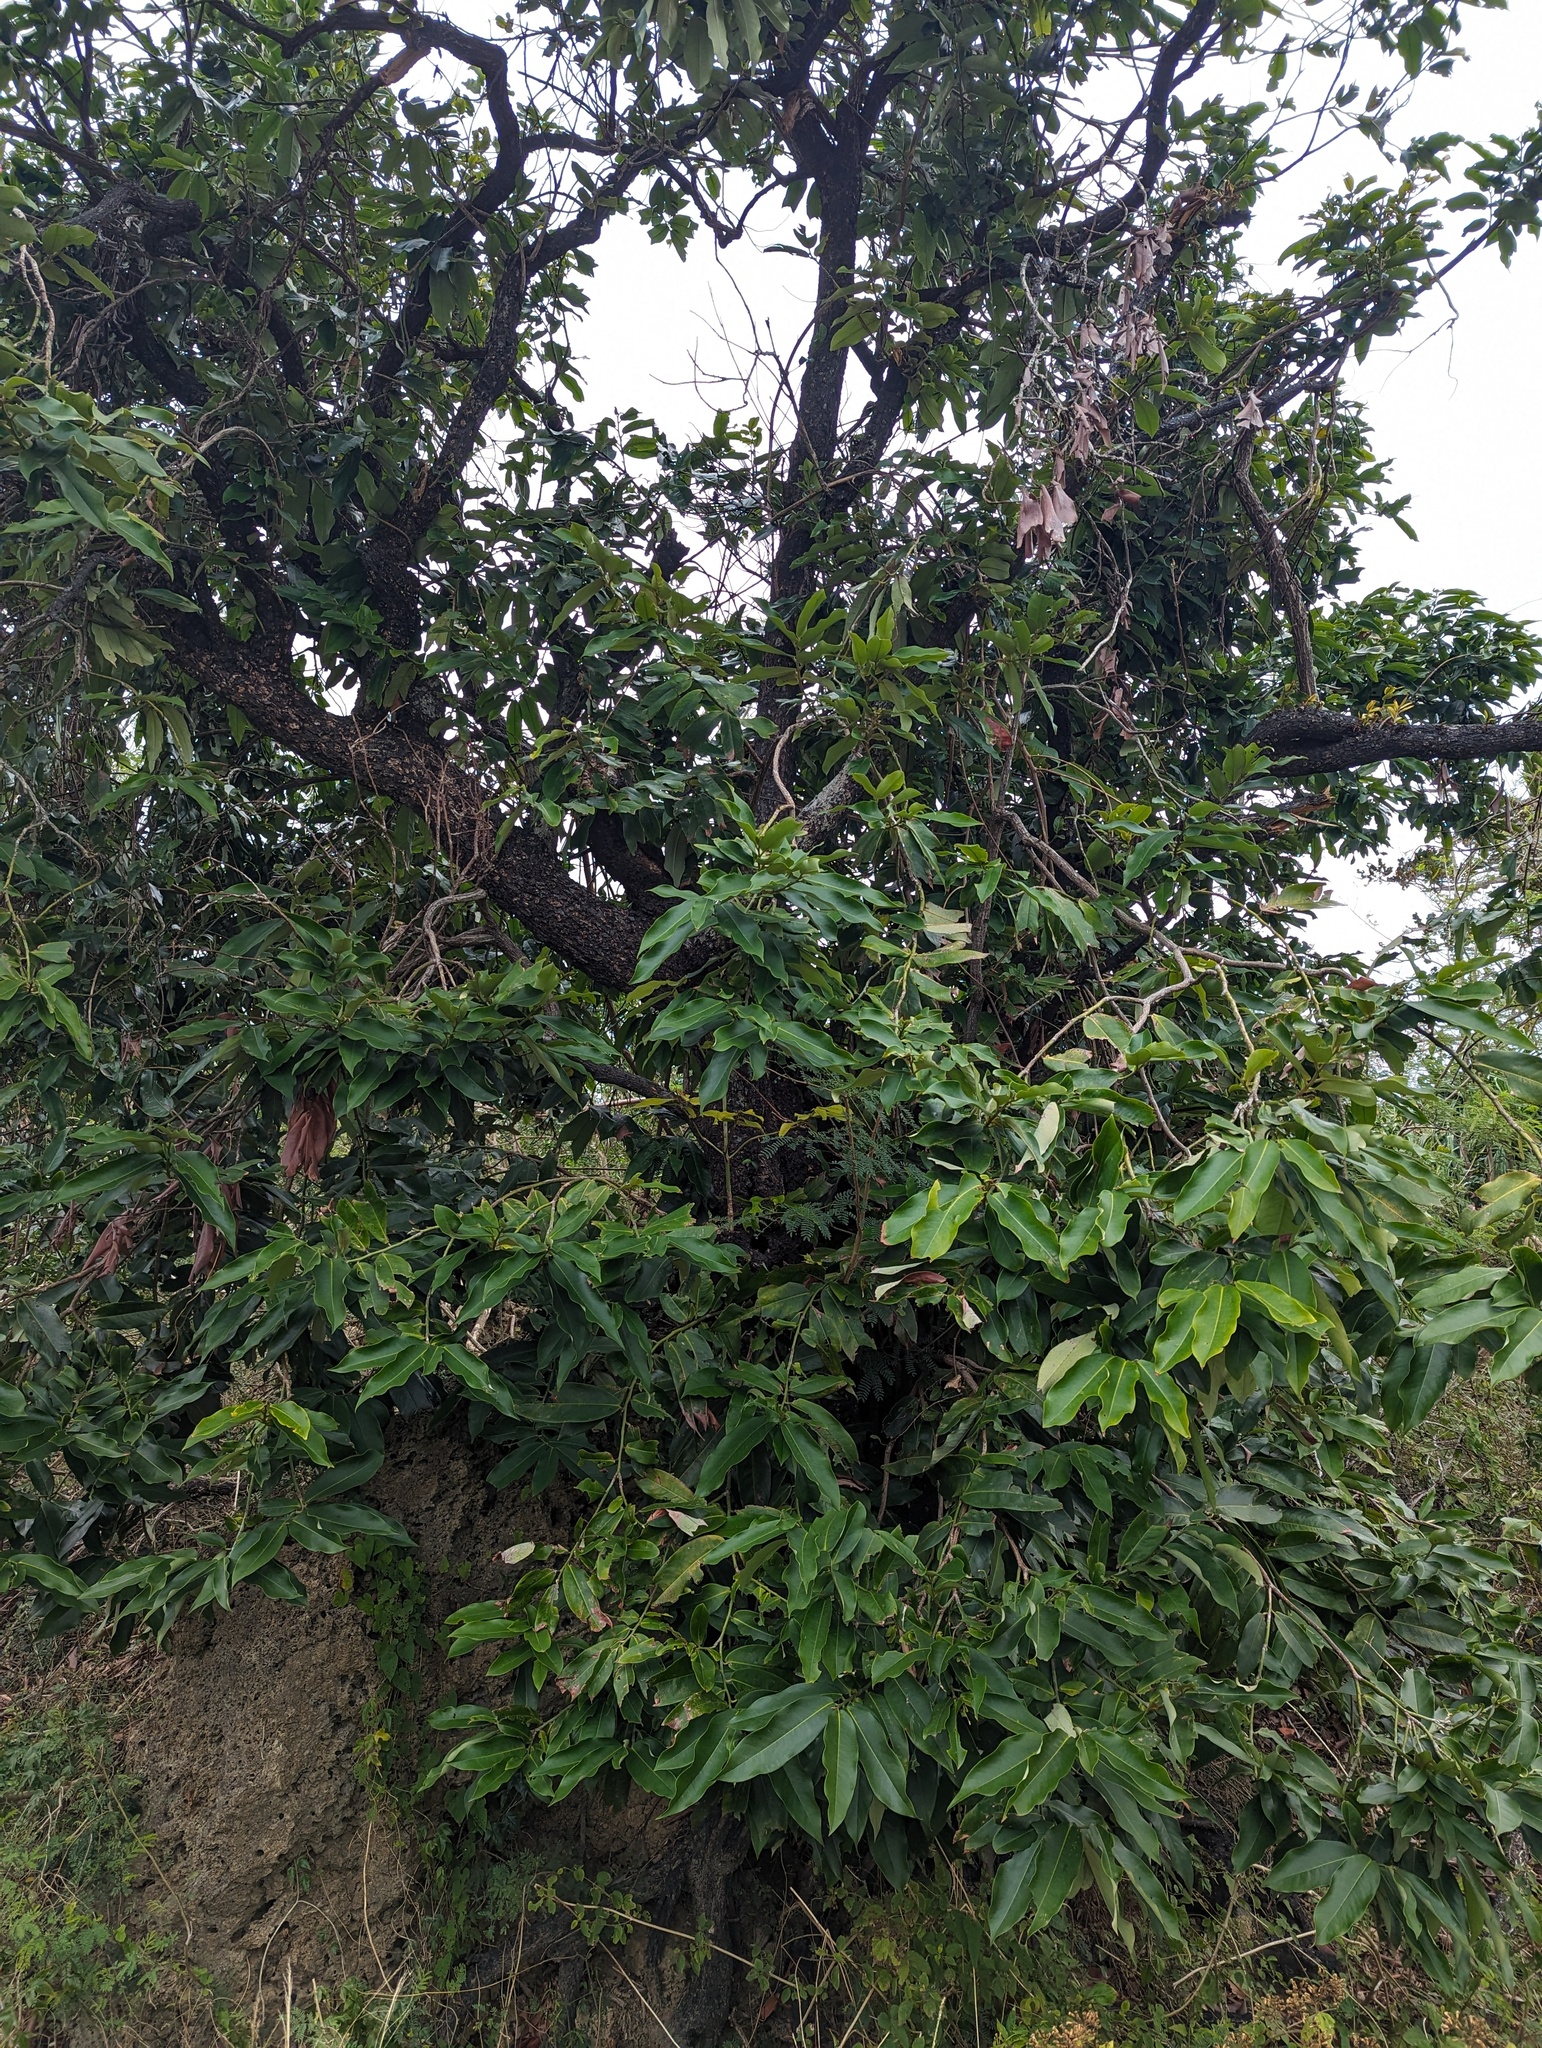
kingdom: Plantae
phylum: Tracheophyta
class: Magnoliopsida
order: Ericales
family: Ebenaceae
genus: Diospyros
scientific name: Diospyros blancoi
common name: Mabola-tree
